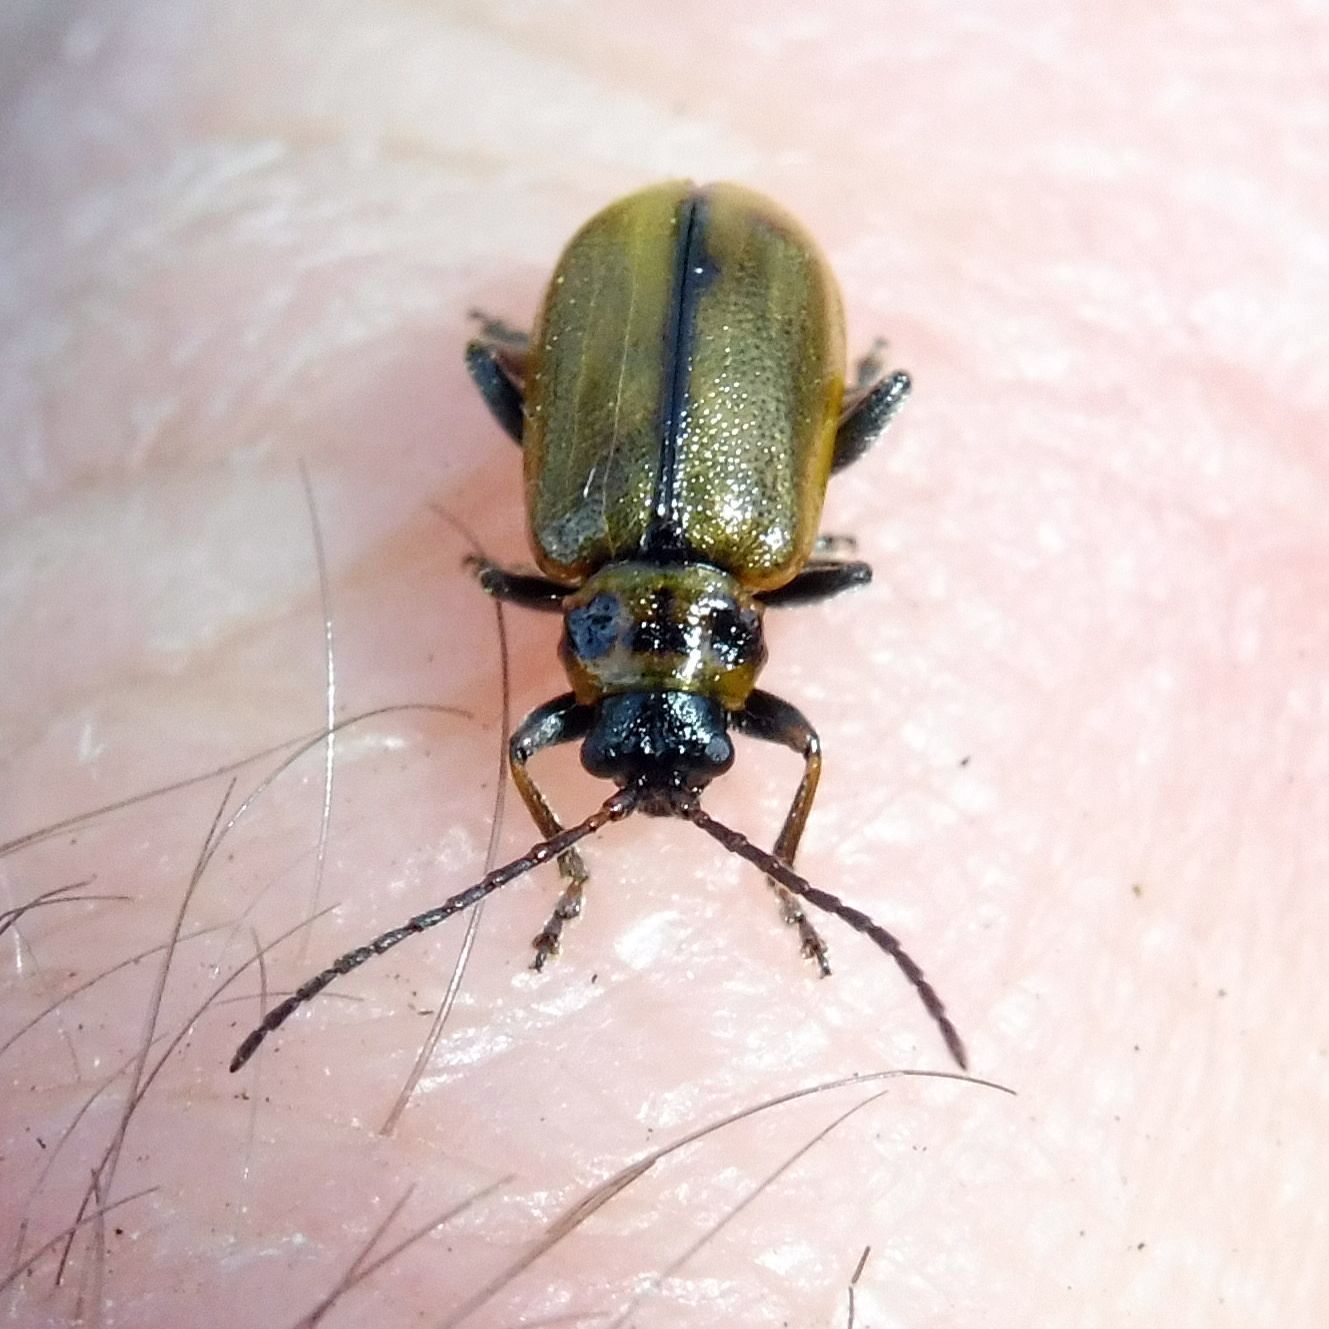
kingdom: Animalia
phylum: Arthropoda
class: Insecta
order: Coleoptera
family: Chrysomelidae
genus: Lochmaea
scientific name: Lochmaea suturalis
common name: Heather beetle
